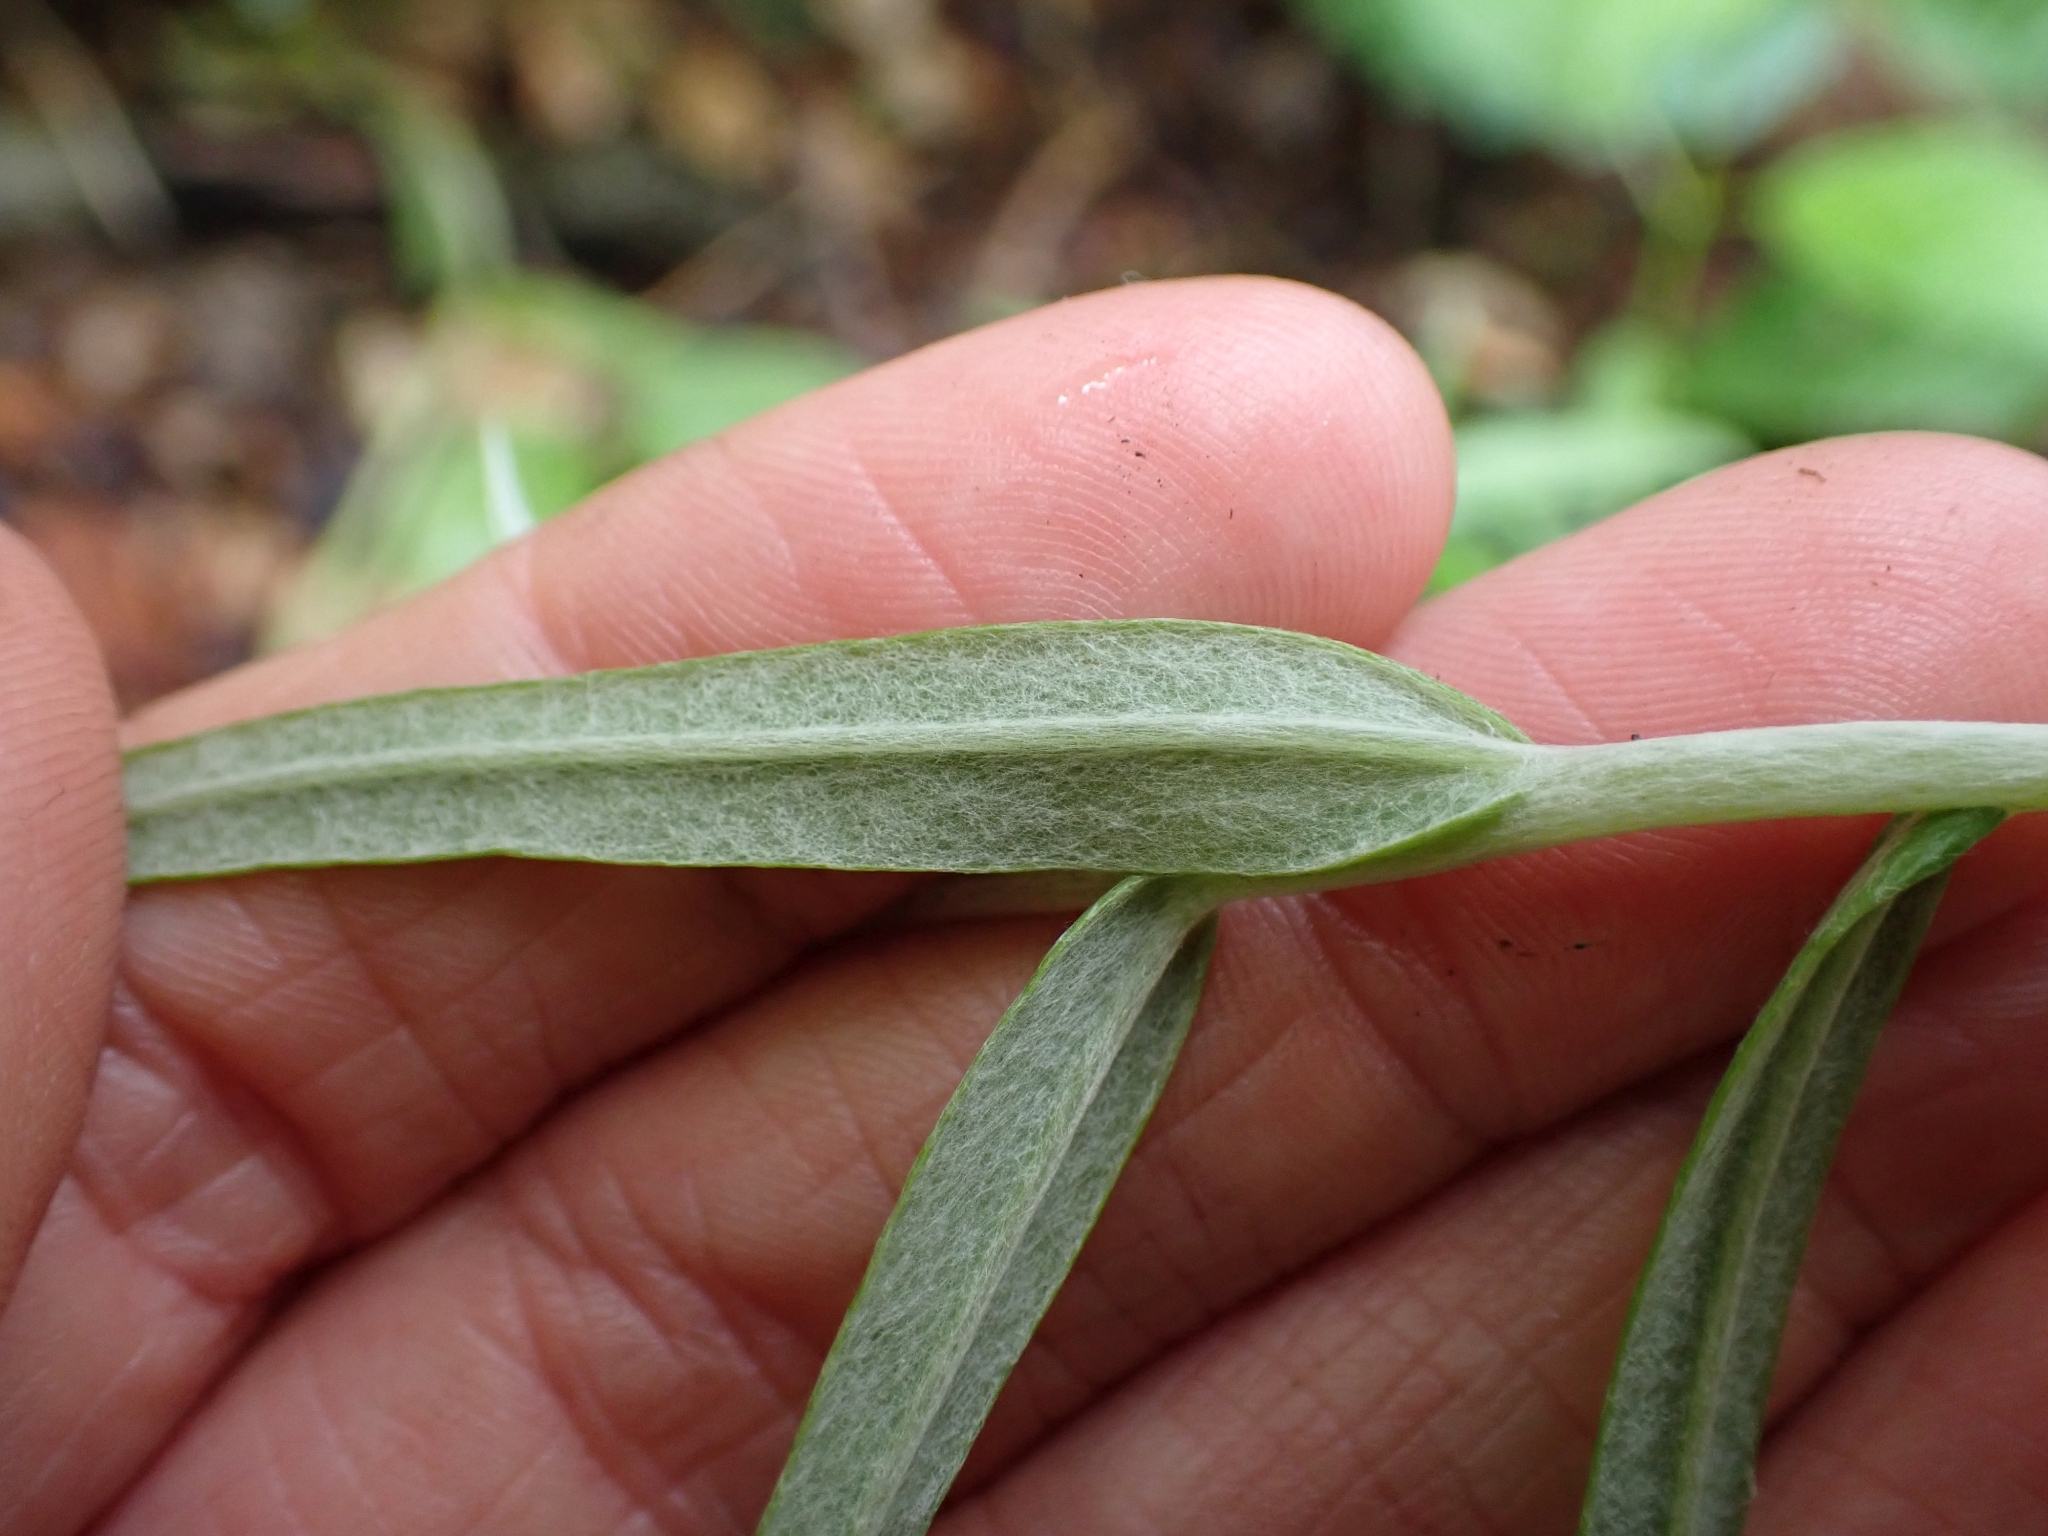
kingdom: Plantae
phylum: Tracheophyta
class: Magnoliopsida
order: Asterales
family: Asteraceae
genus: Anaphalis
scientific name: Anaphalis margaritacea
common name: Pearly everlasting
